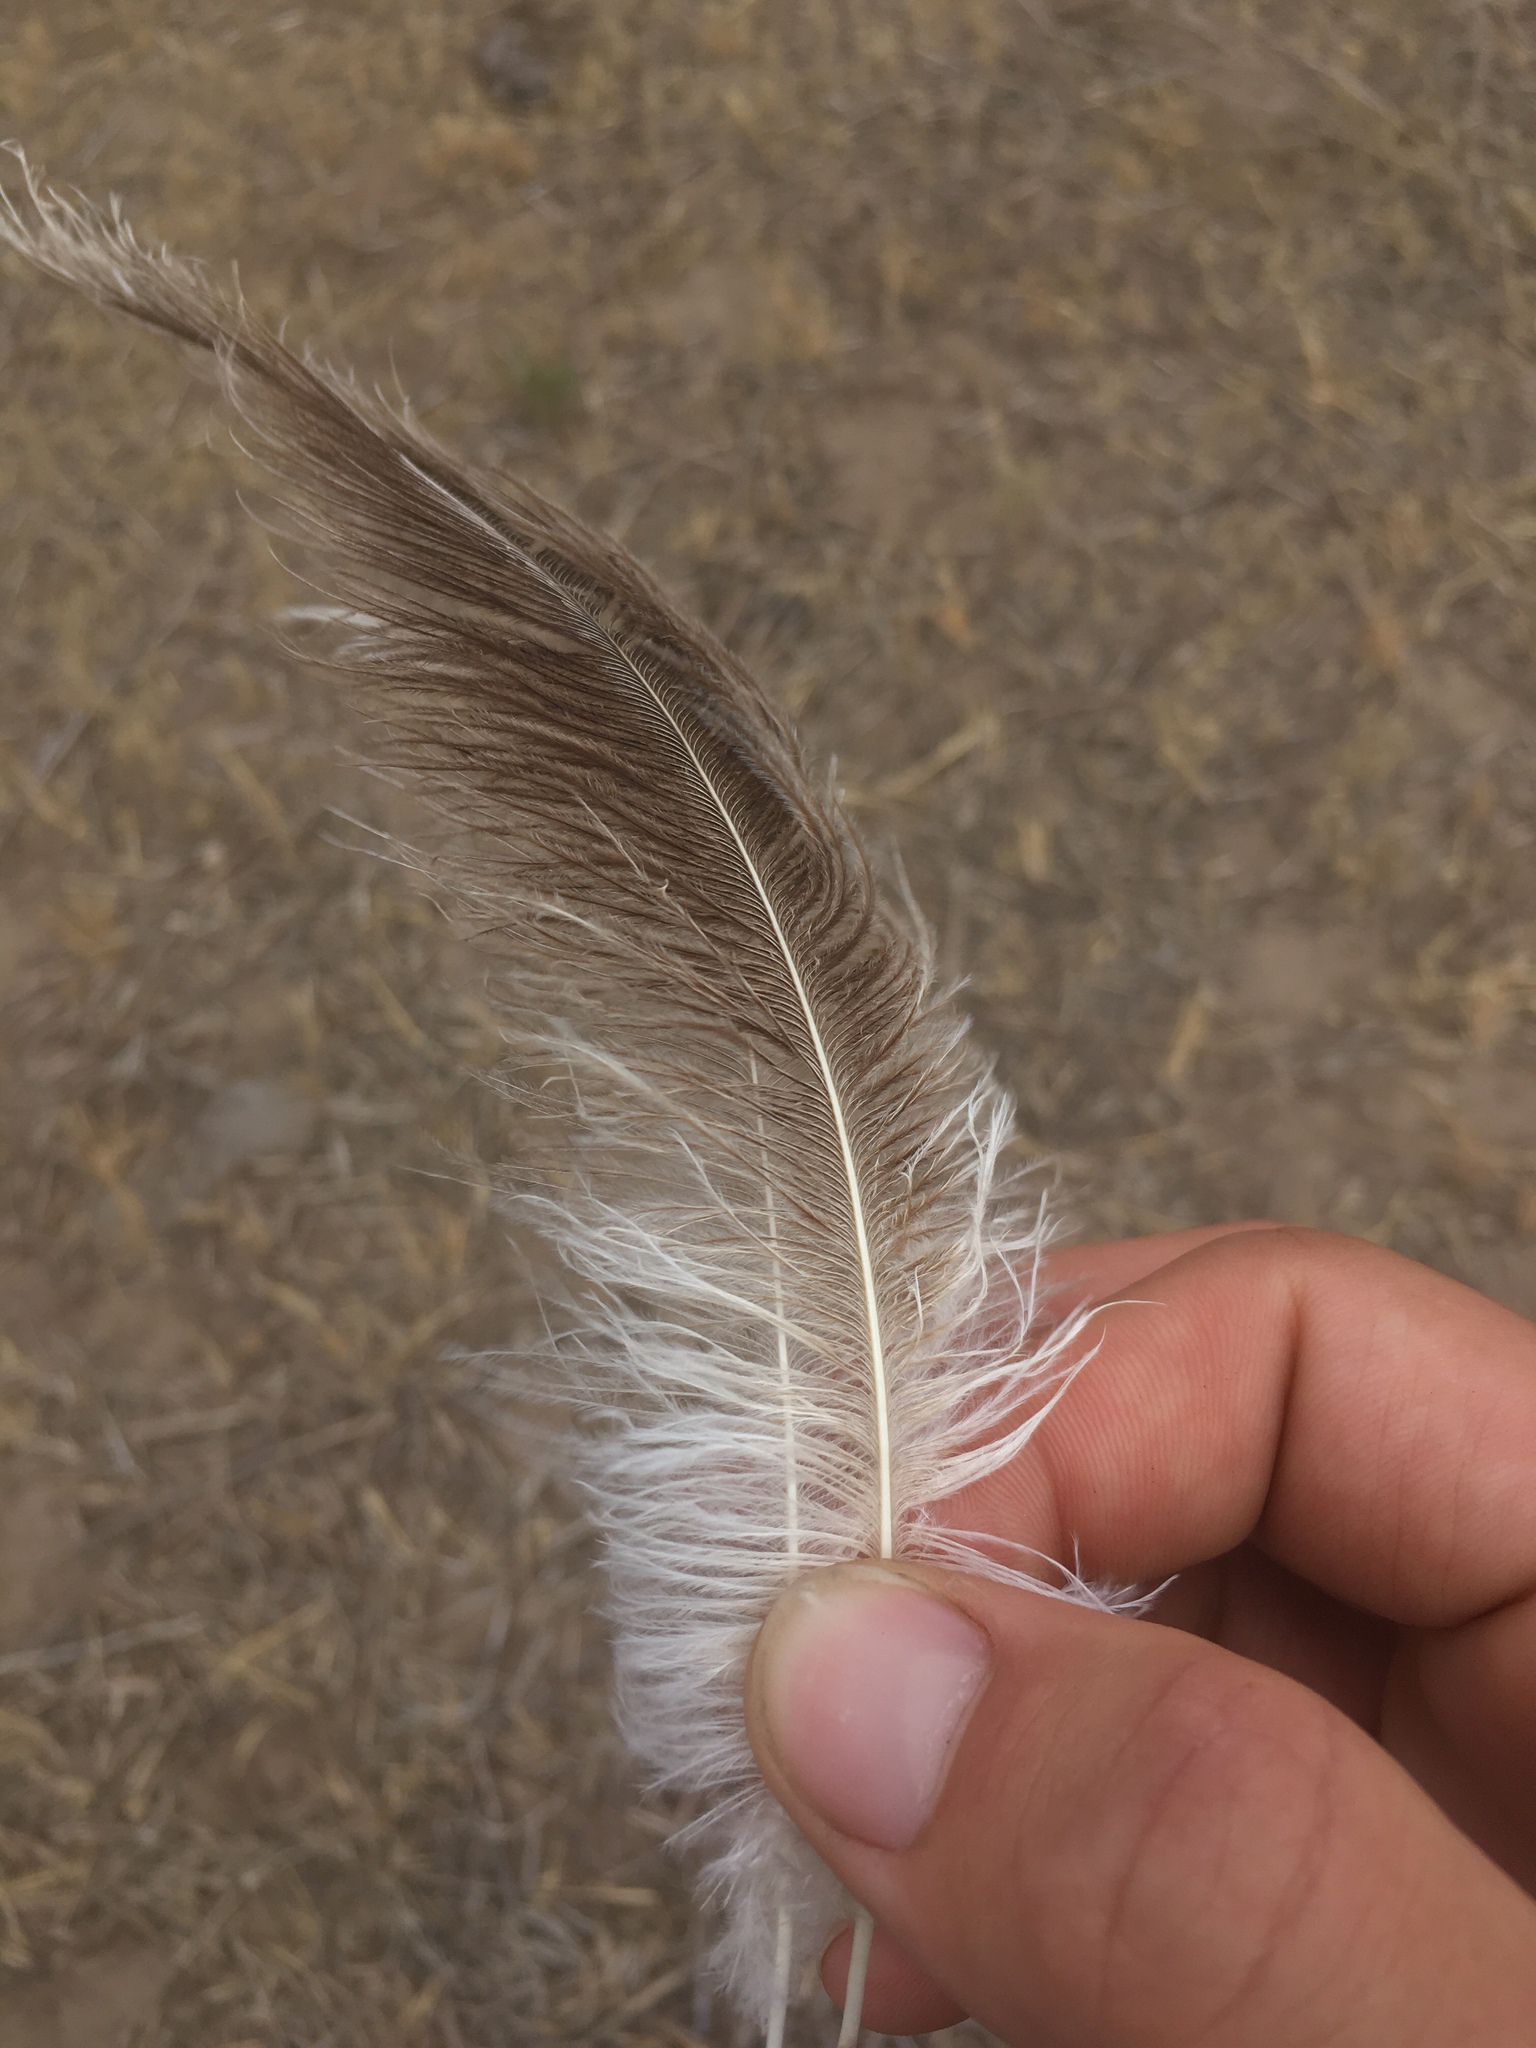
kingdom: Animalia
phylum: Chordata
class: Aves
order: Rheiformes
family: Rheidae
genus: Rhea
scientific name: Rhea americana
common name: Greater rhea
